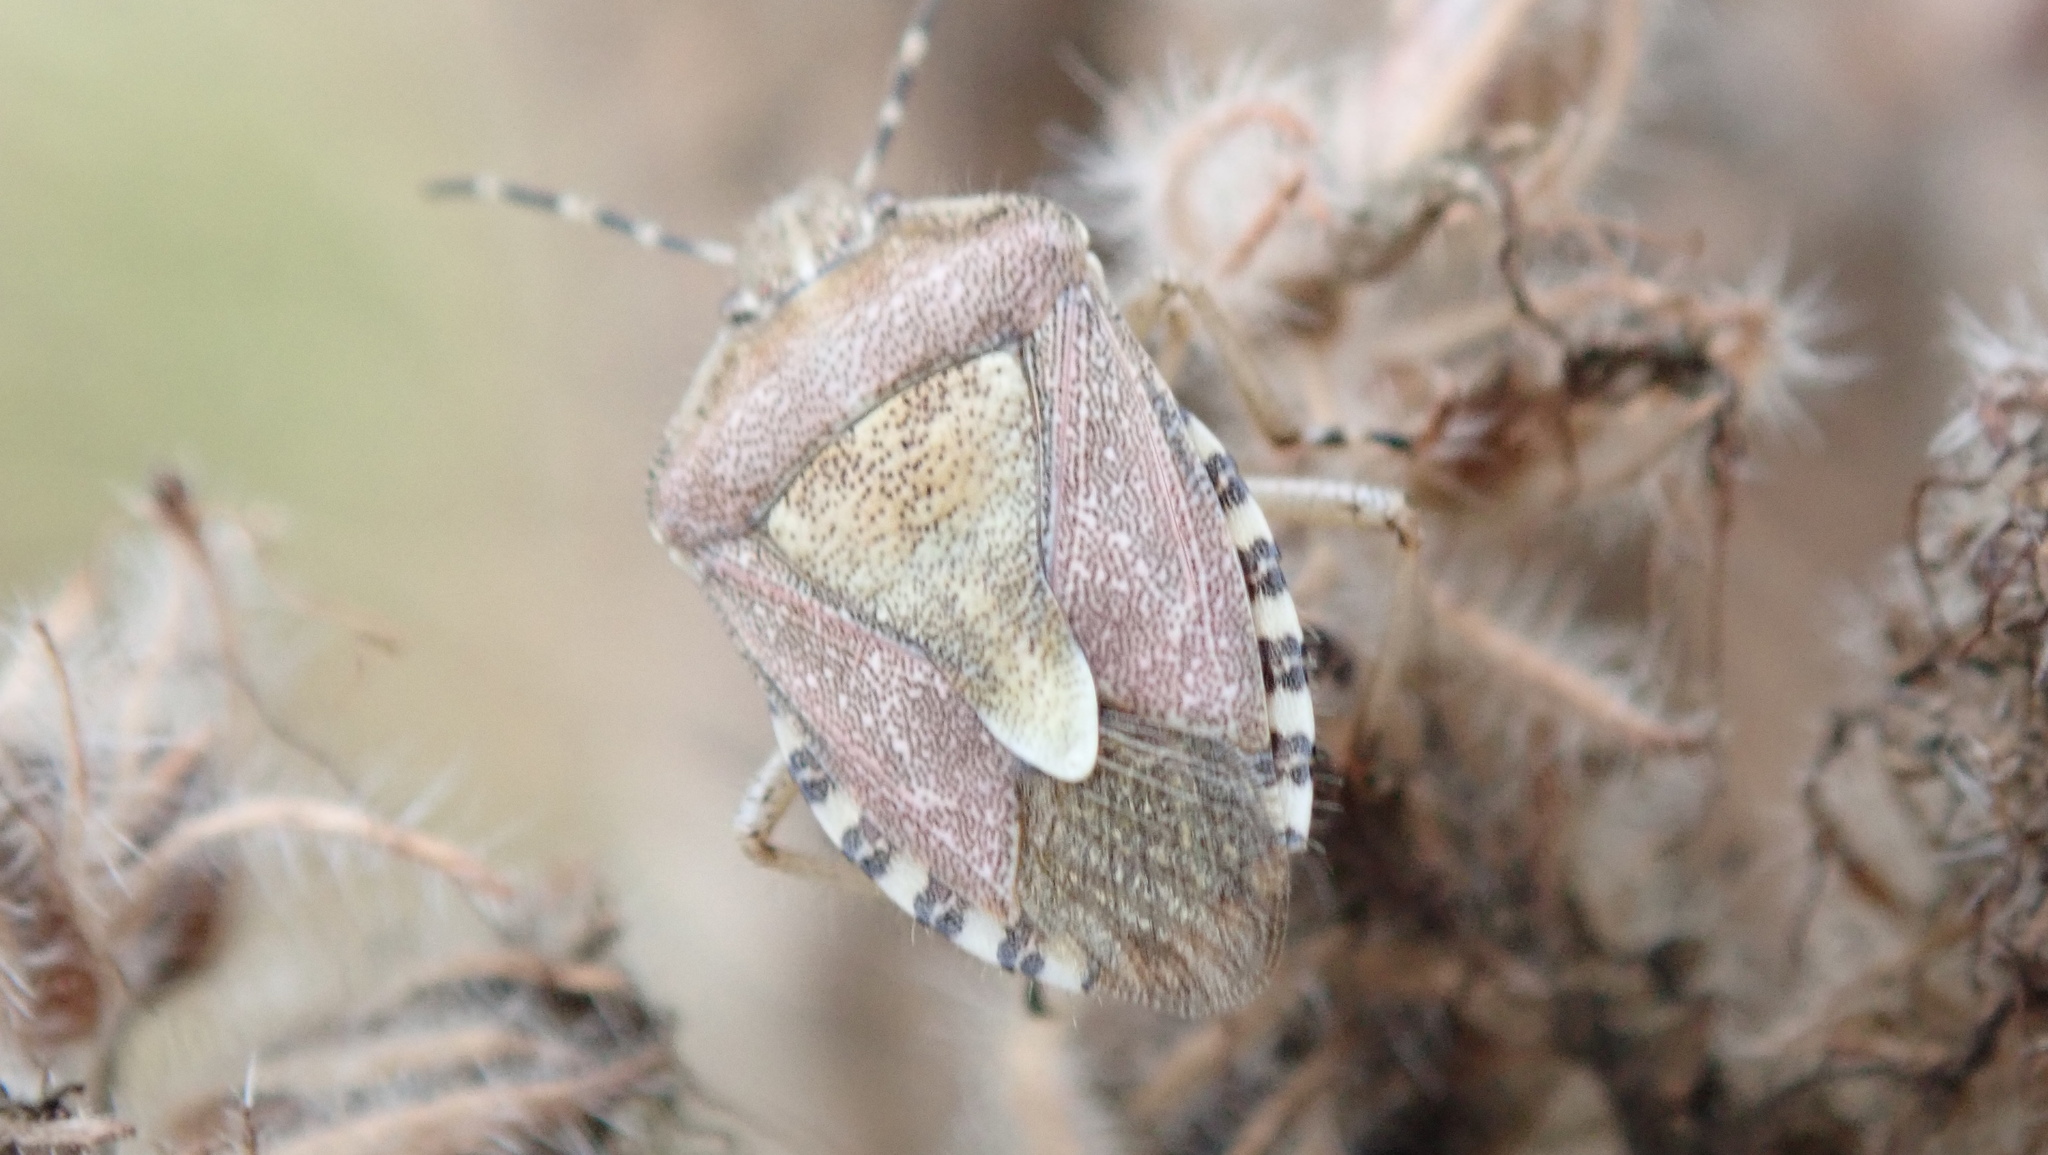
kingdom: Animalia
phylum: Arthropoda
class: Insecta
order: Hemiptera
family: Pentatomidae
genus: Dolycoris
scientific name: Dolycoris baccarum
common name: Sloe bug
